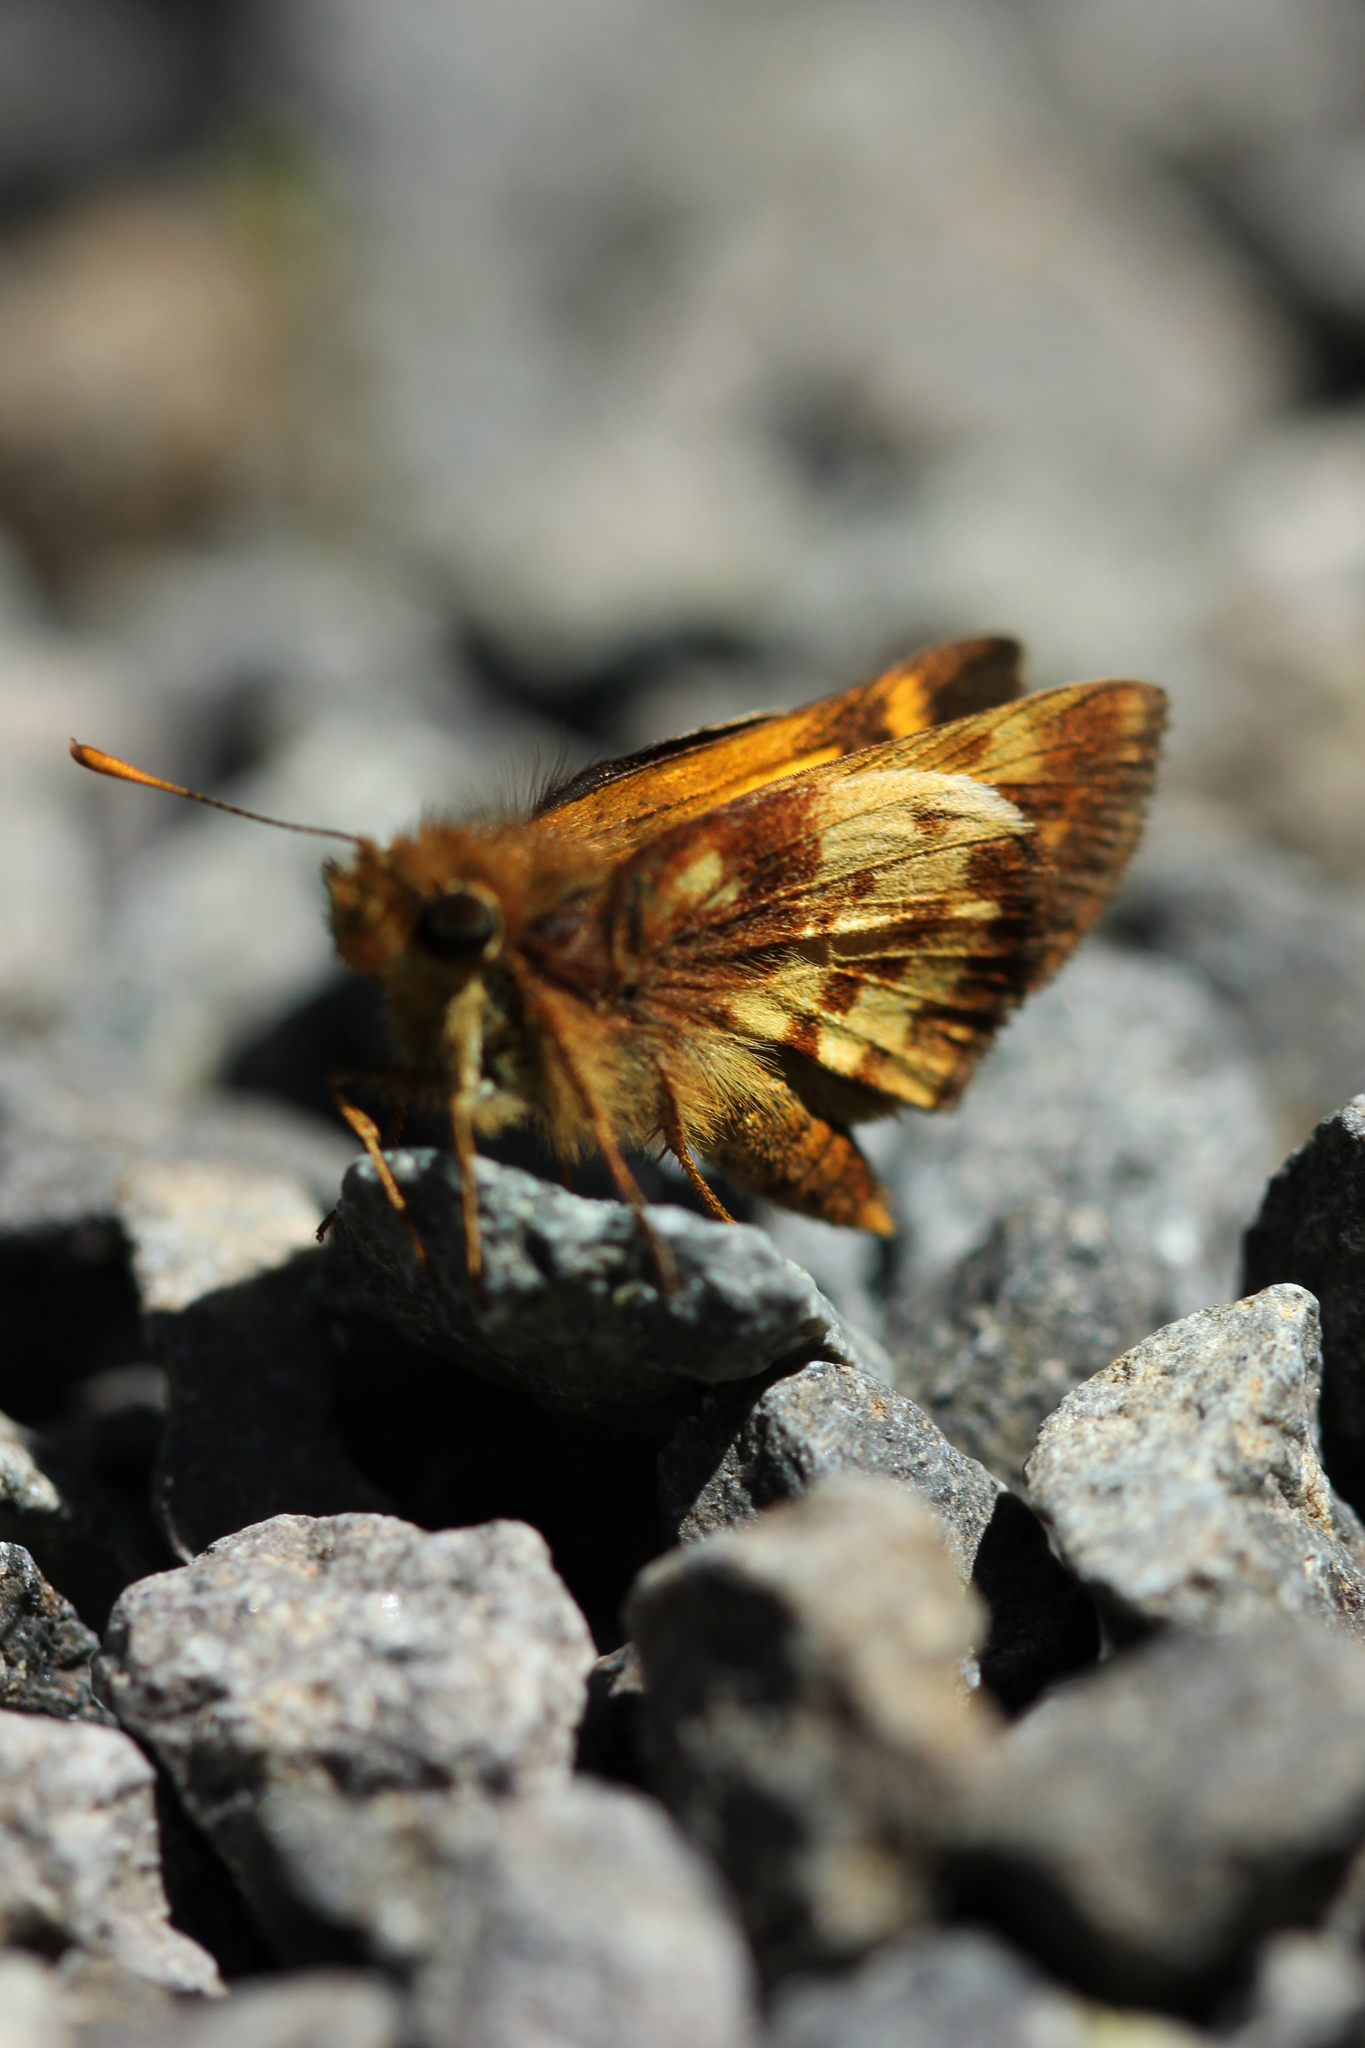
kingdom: Animalia
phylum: Arthropoda
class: Insecta
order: Lepidoptera
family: Hesperiidae
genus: Lon
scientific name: Lon zabulon
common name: Zabulon skipper
